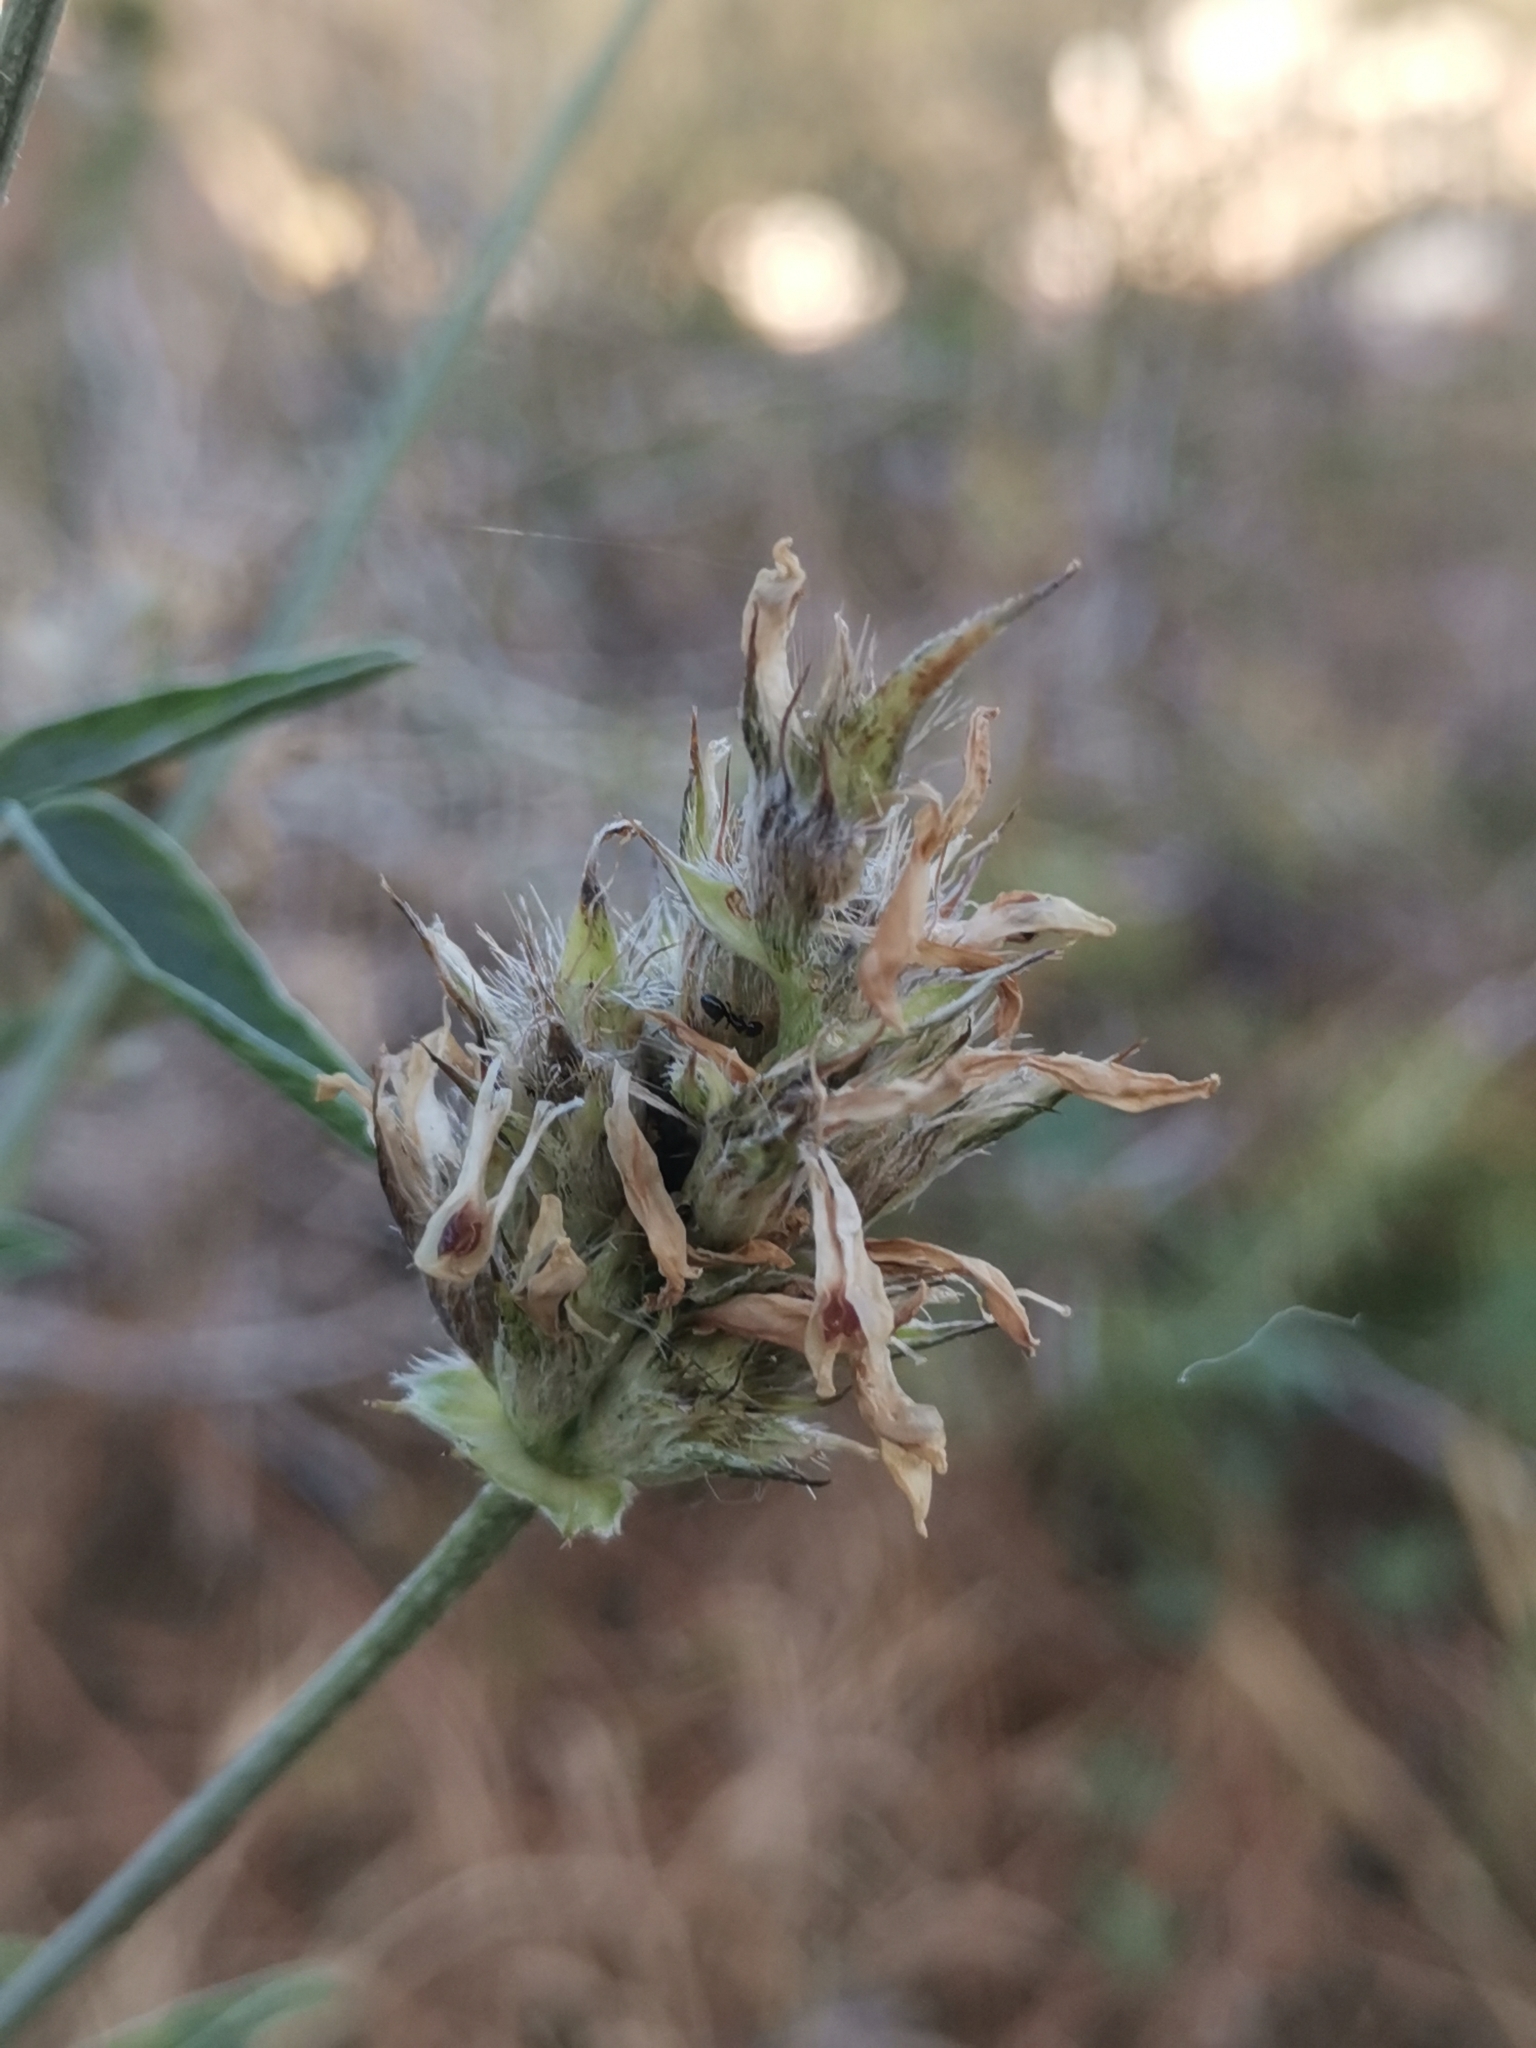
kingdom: Plantae
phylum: Tracheophyta
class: Magnoliopsida
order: Fabales
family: Fabaceae
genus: Bituminaria
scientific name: Bituminaria bituminosa
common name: Arabian pea
